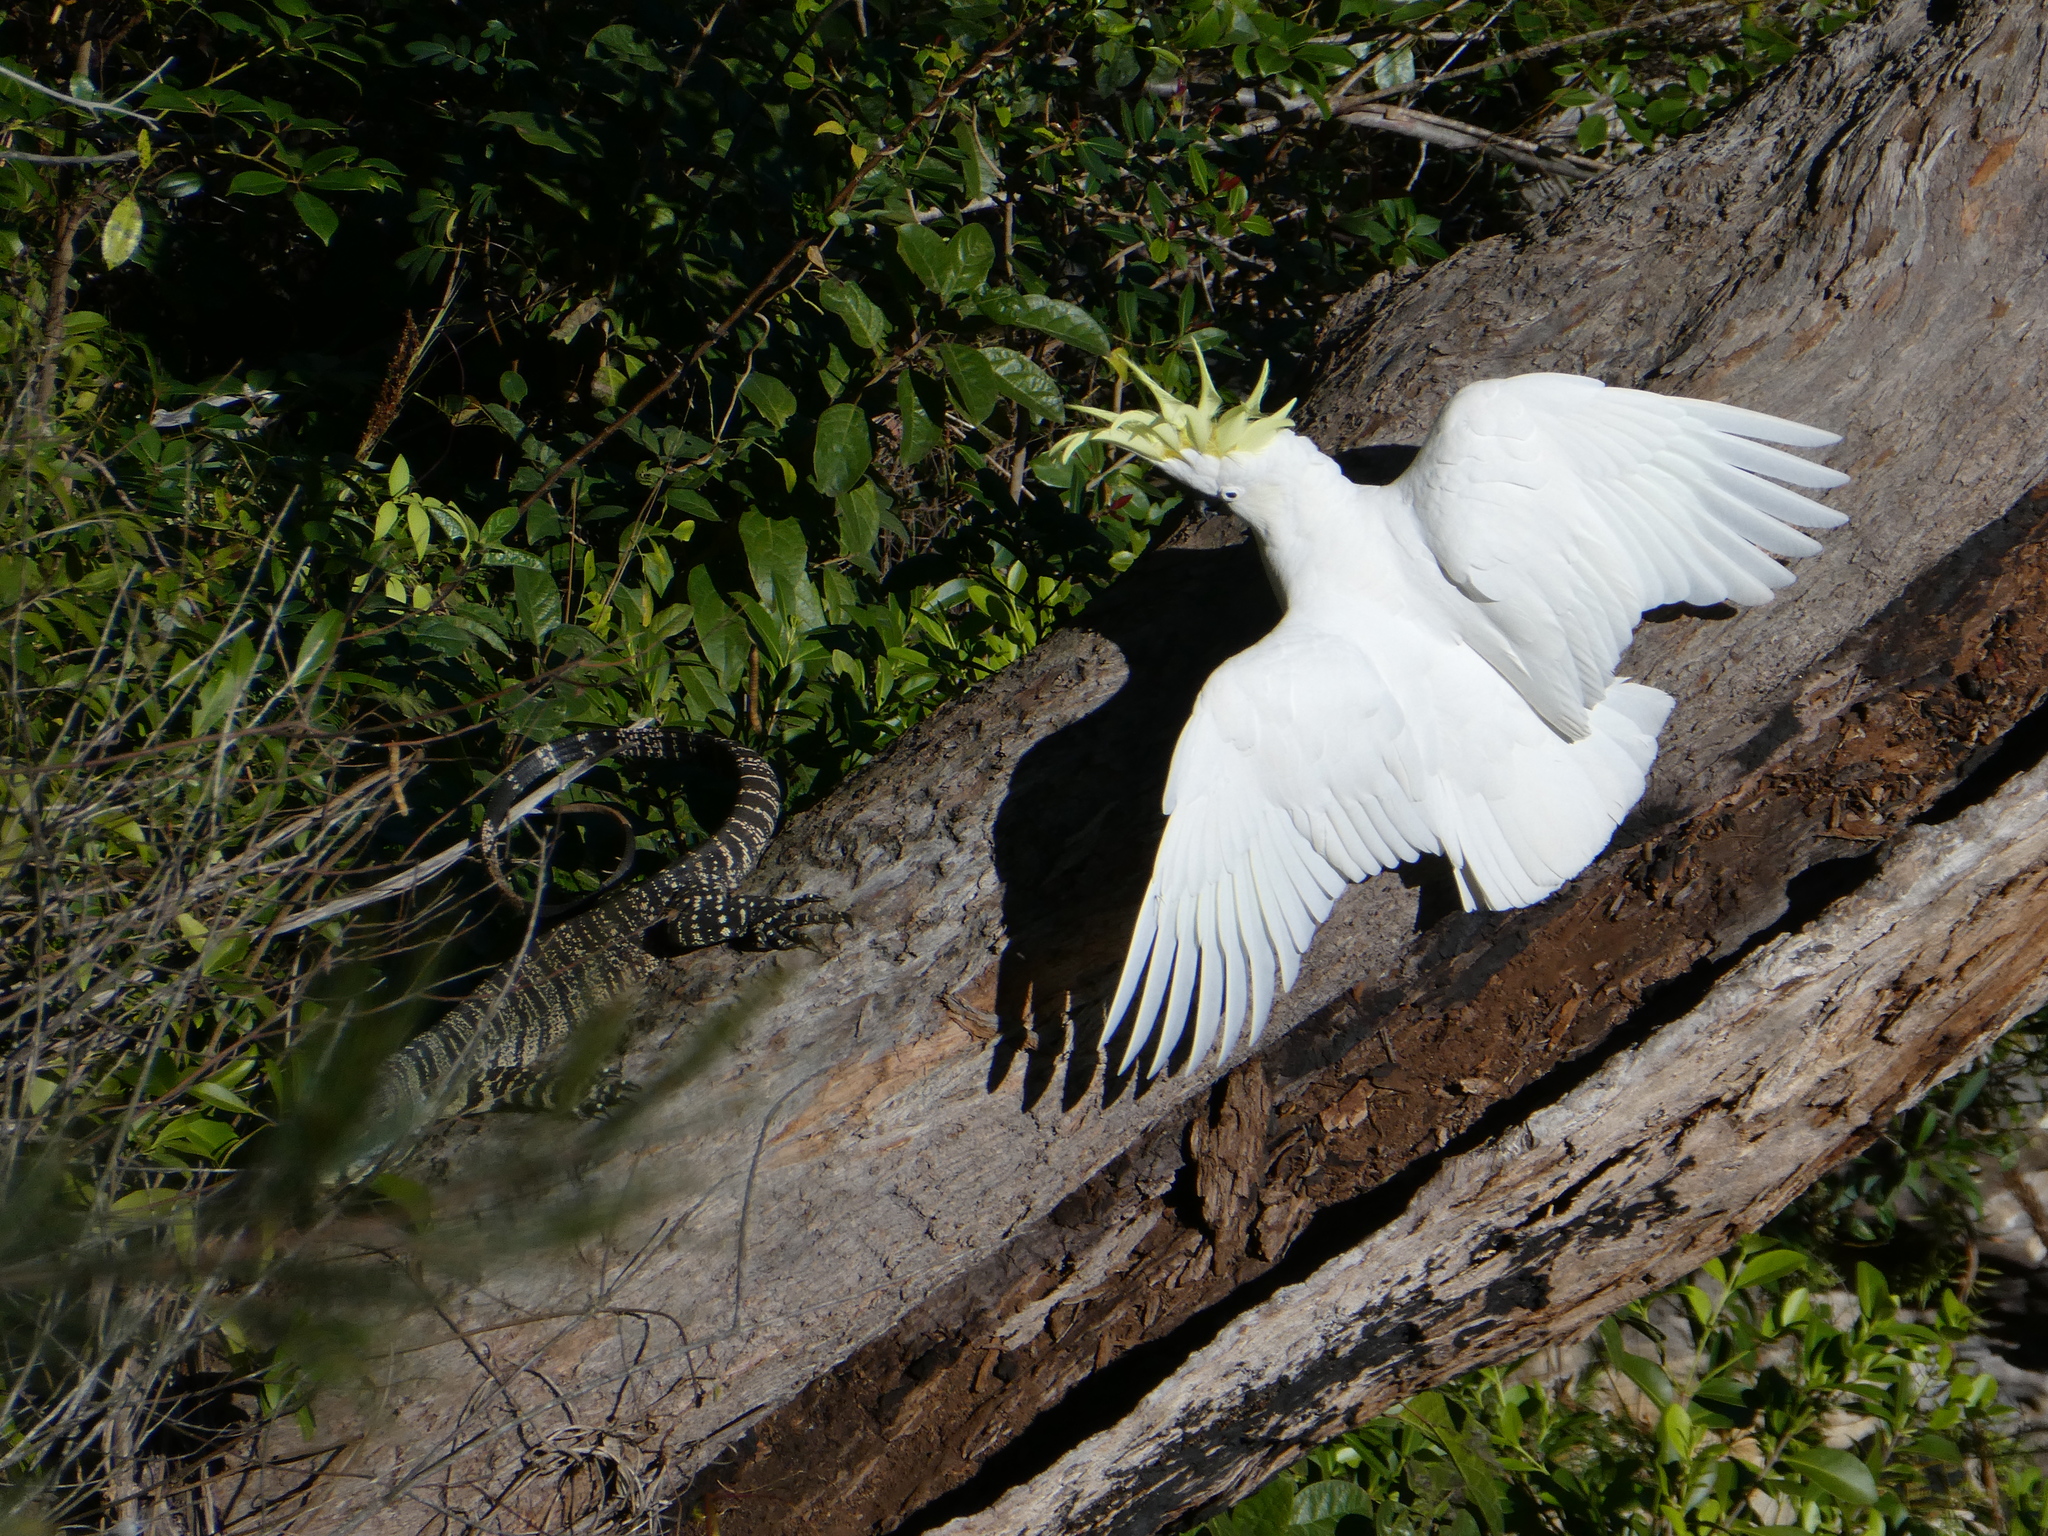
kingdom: Animalia
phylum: Chordata
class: Aves
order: Psittaciformes
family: Psittacidae
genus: Cacatua
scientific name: Cacatua galerita
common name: Sulphur-crested cockatoo
